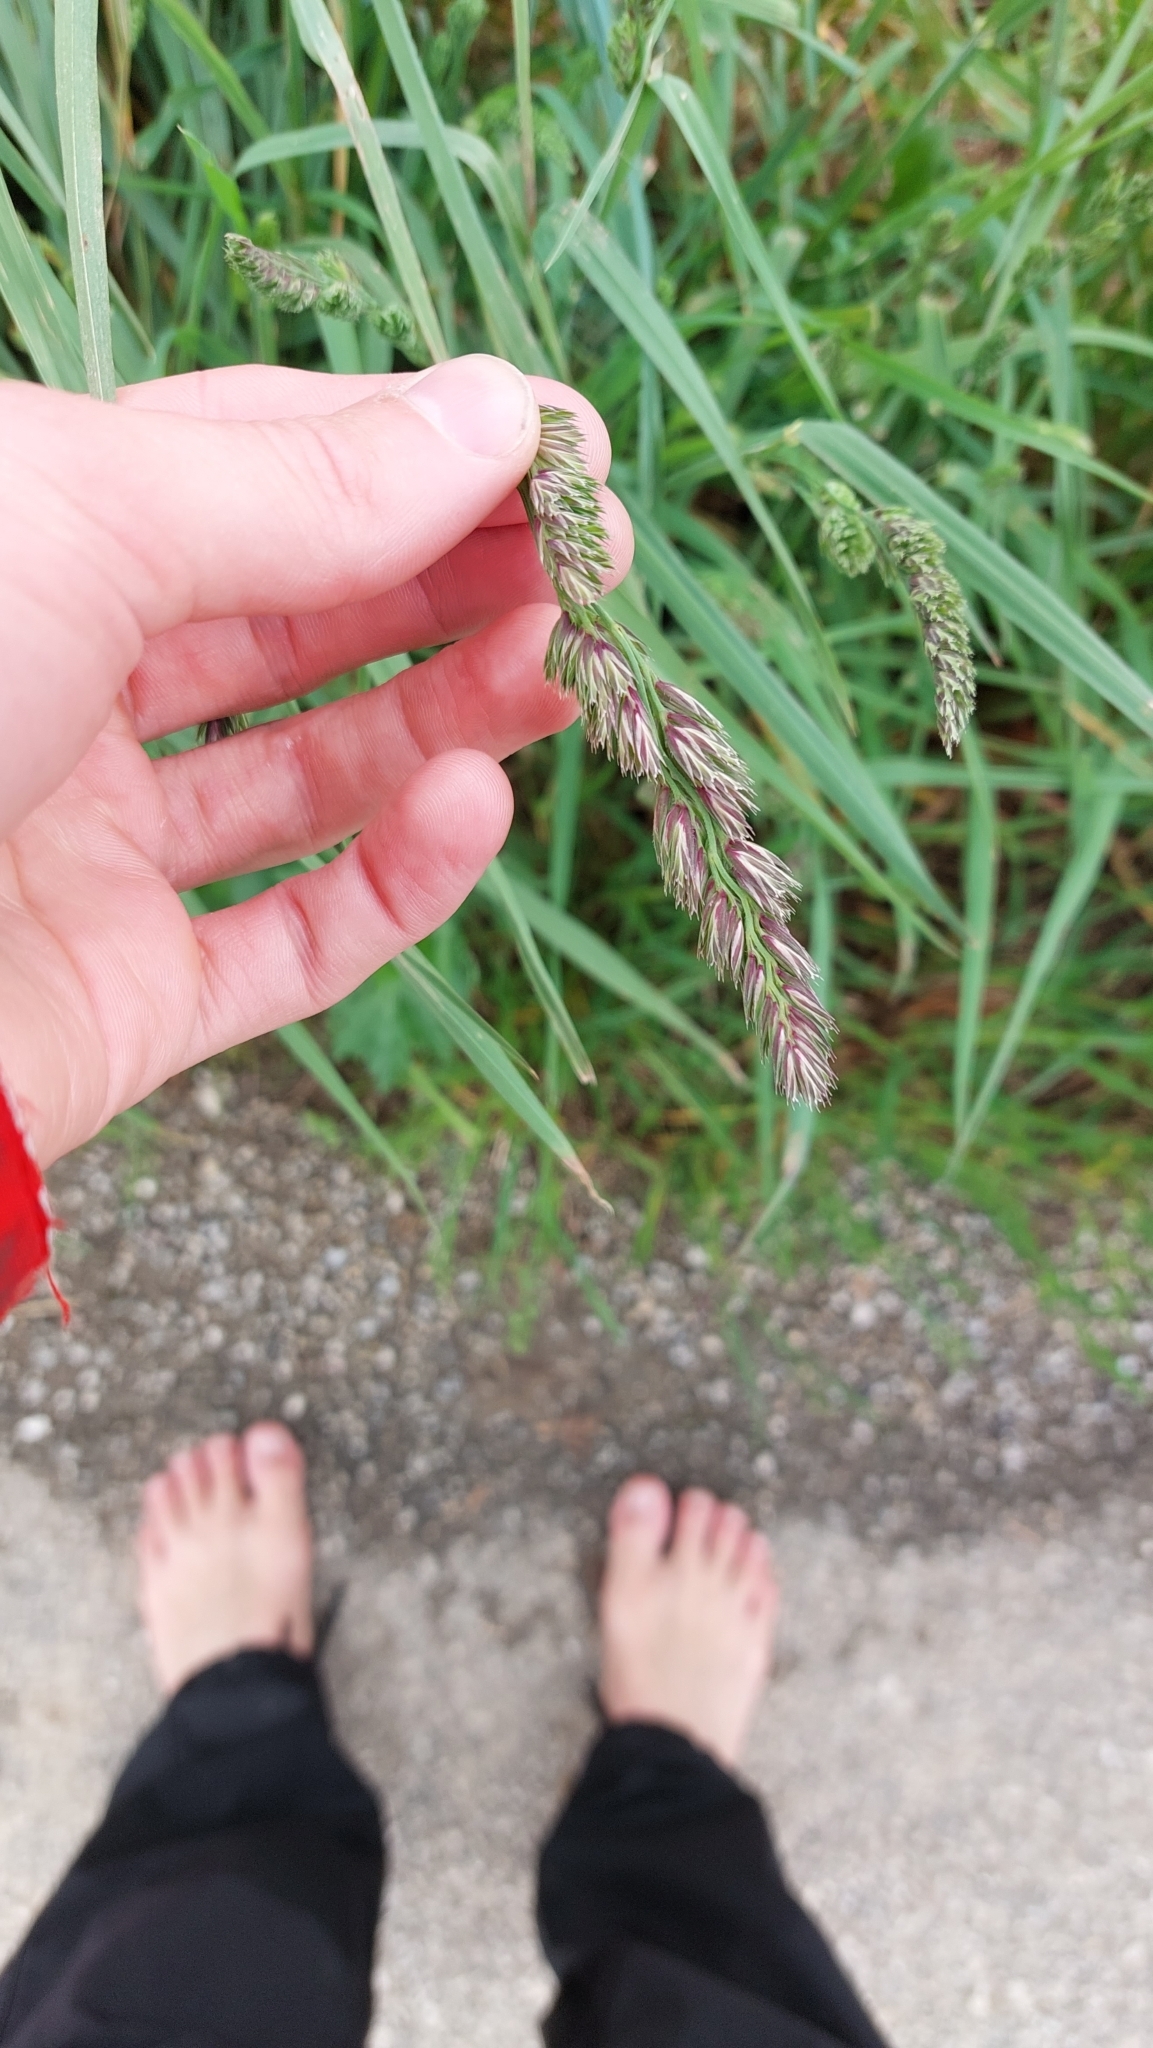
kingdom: Plantae
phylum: Tracheophyta
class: Liliopsida
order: Poales
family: Poaceae
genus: Dactylis
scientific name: Dactylis glomerata
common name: Orchardgrass
